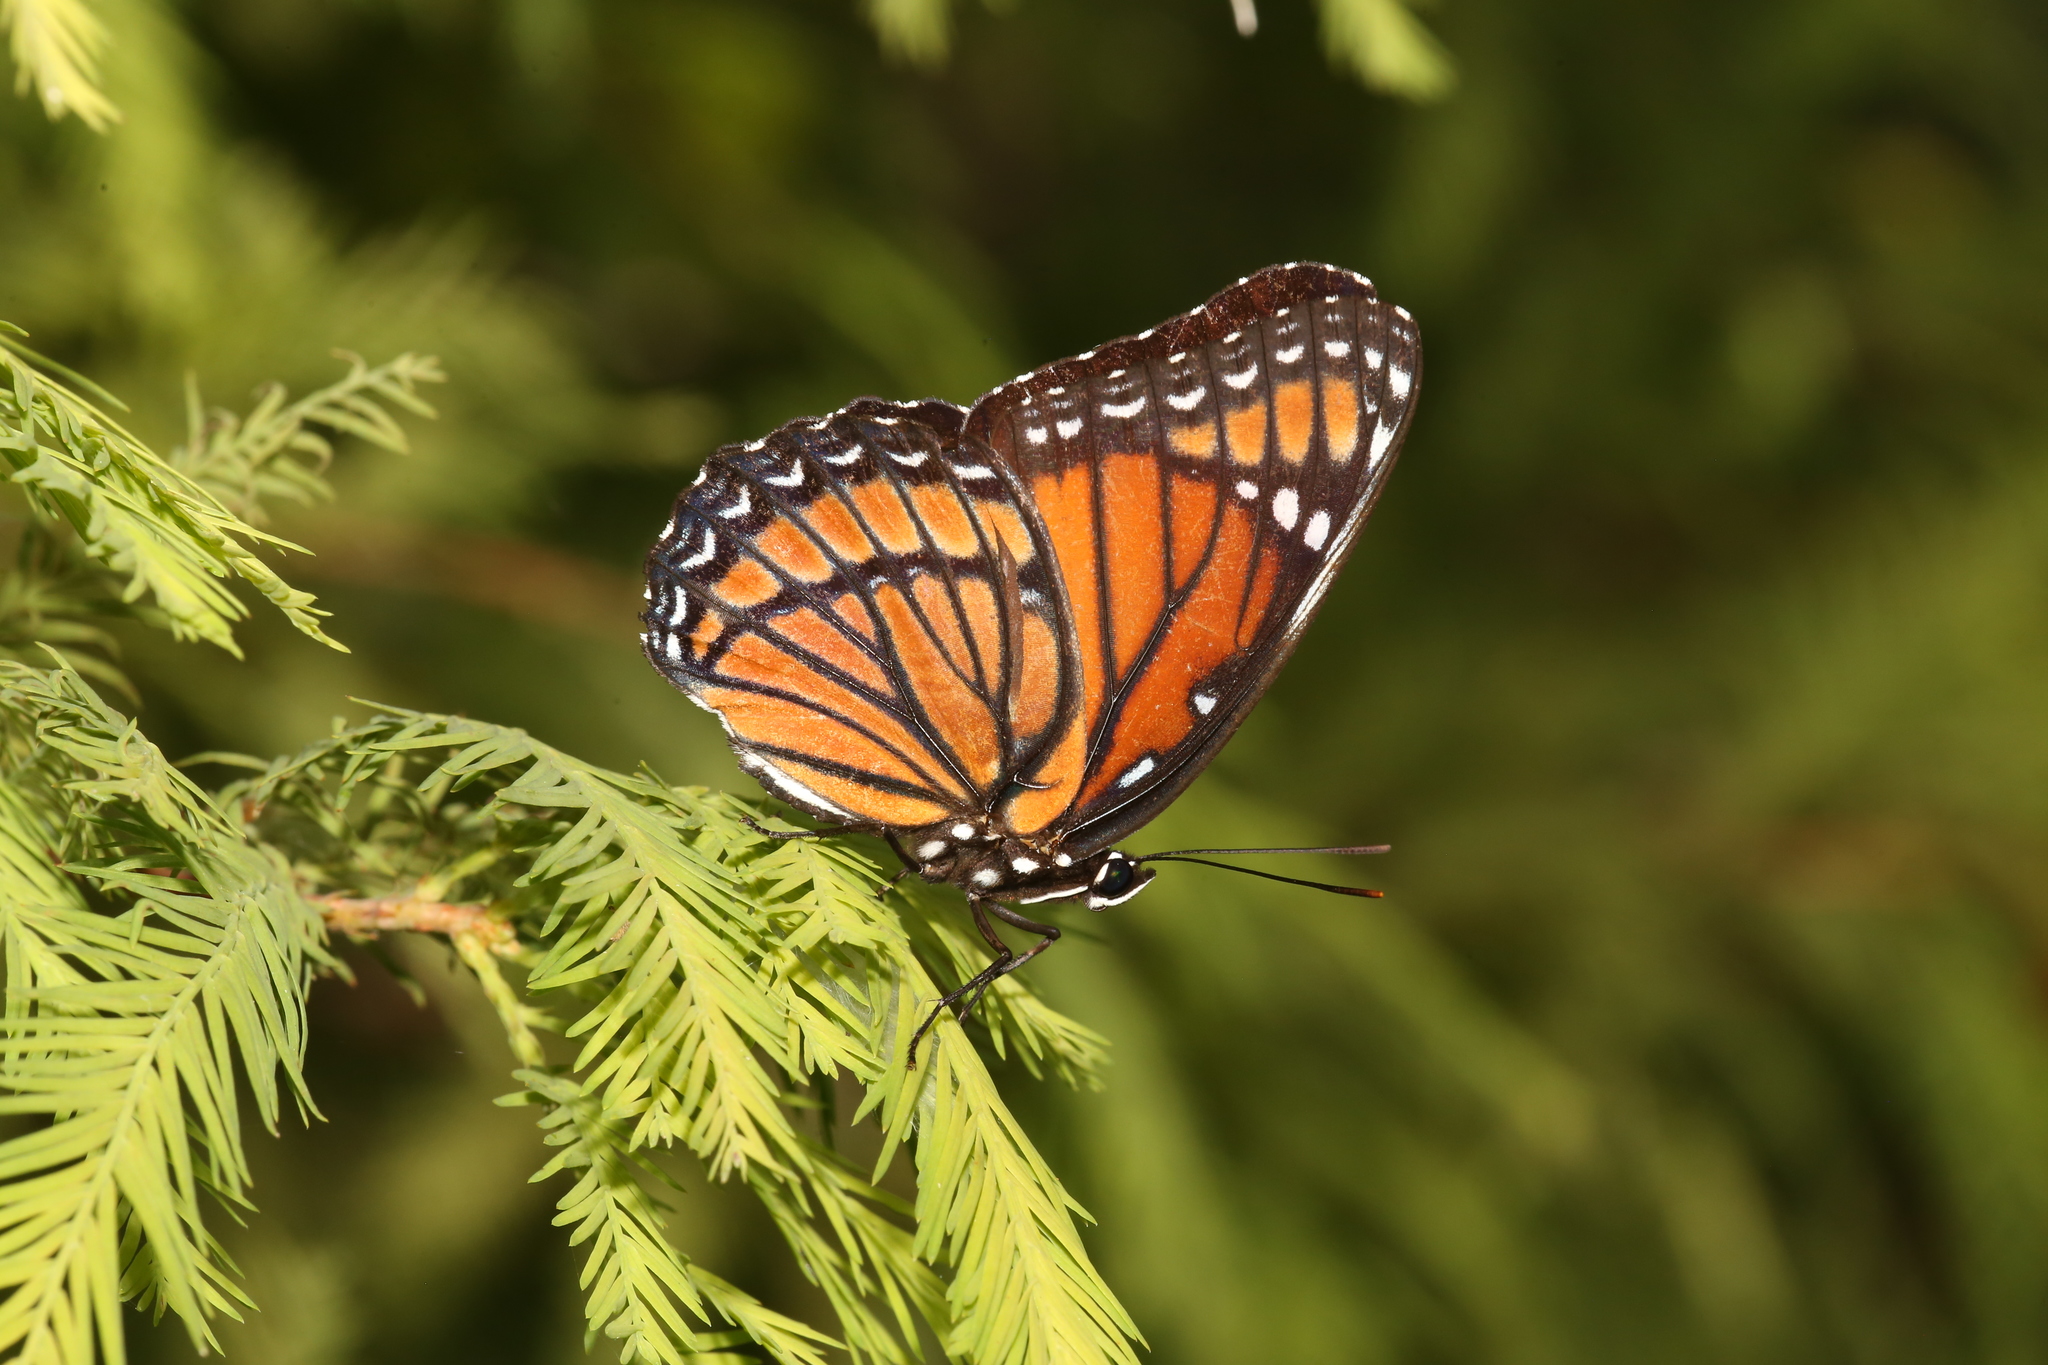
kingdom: Animalia
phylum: Arthropoda
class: Insecta
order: Lepidoptera
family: Nymphalidae
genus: Limenitis
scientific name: Limenitis archippus
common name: Viceroy
